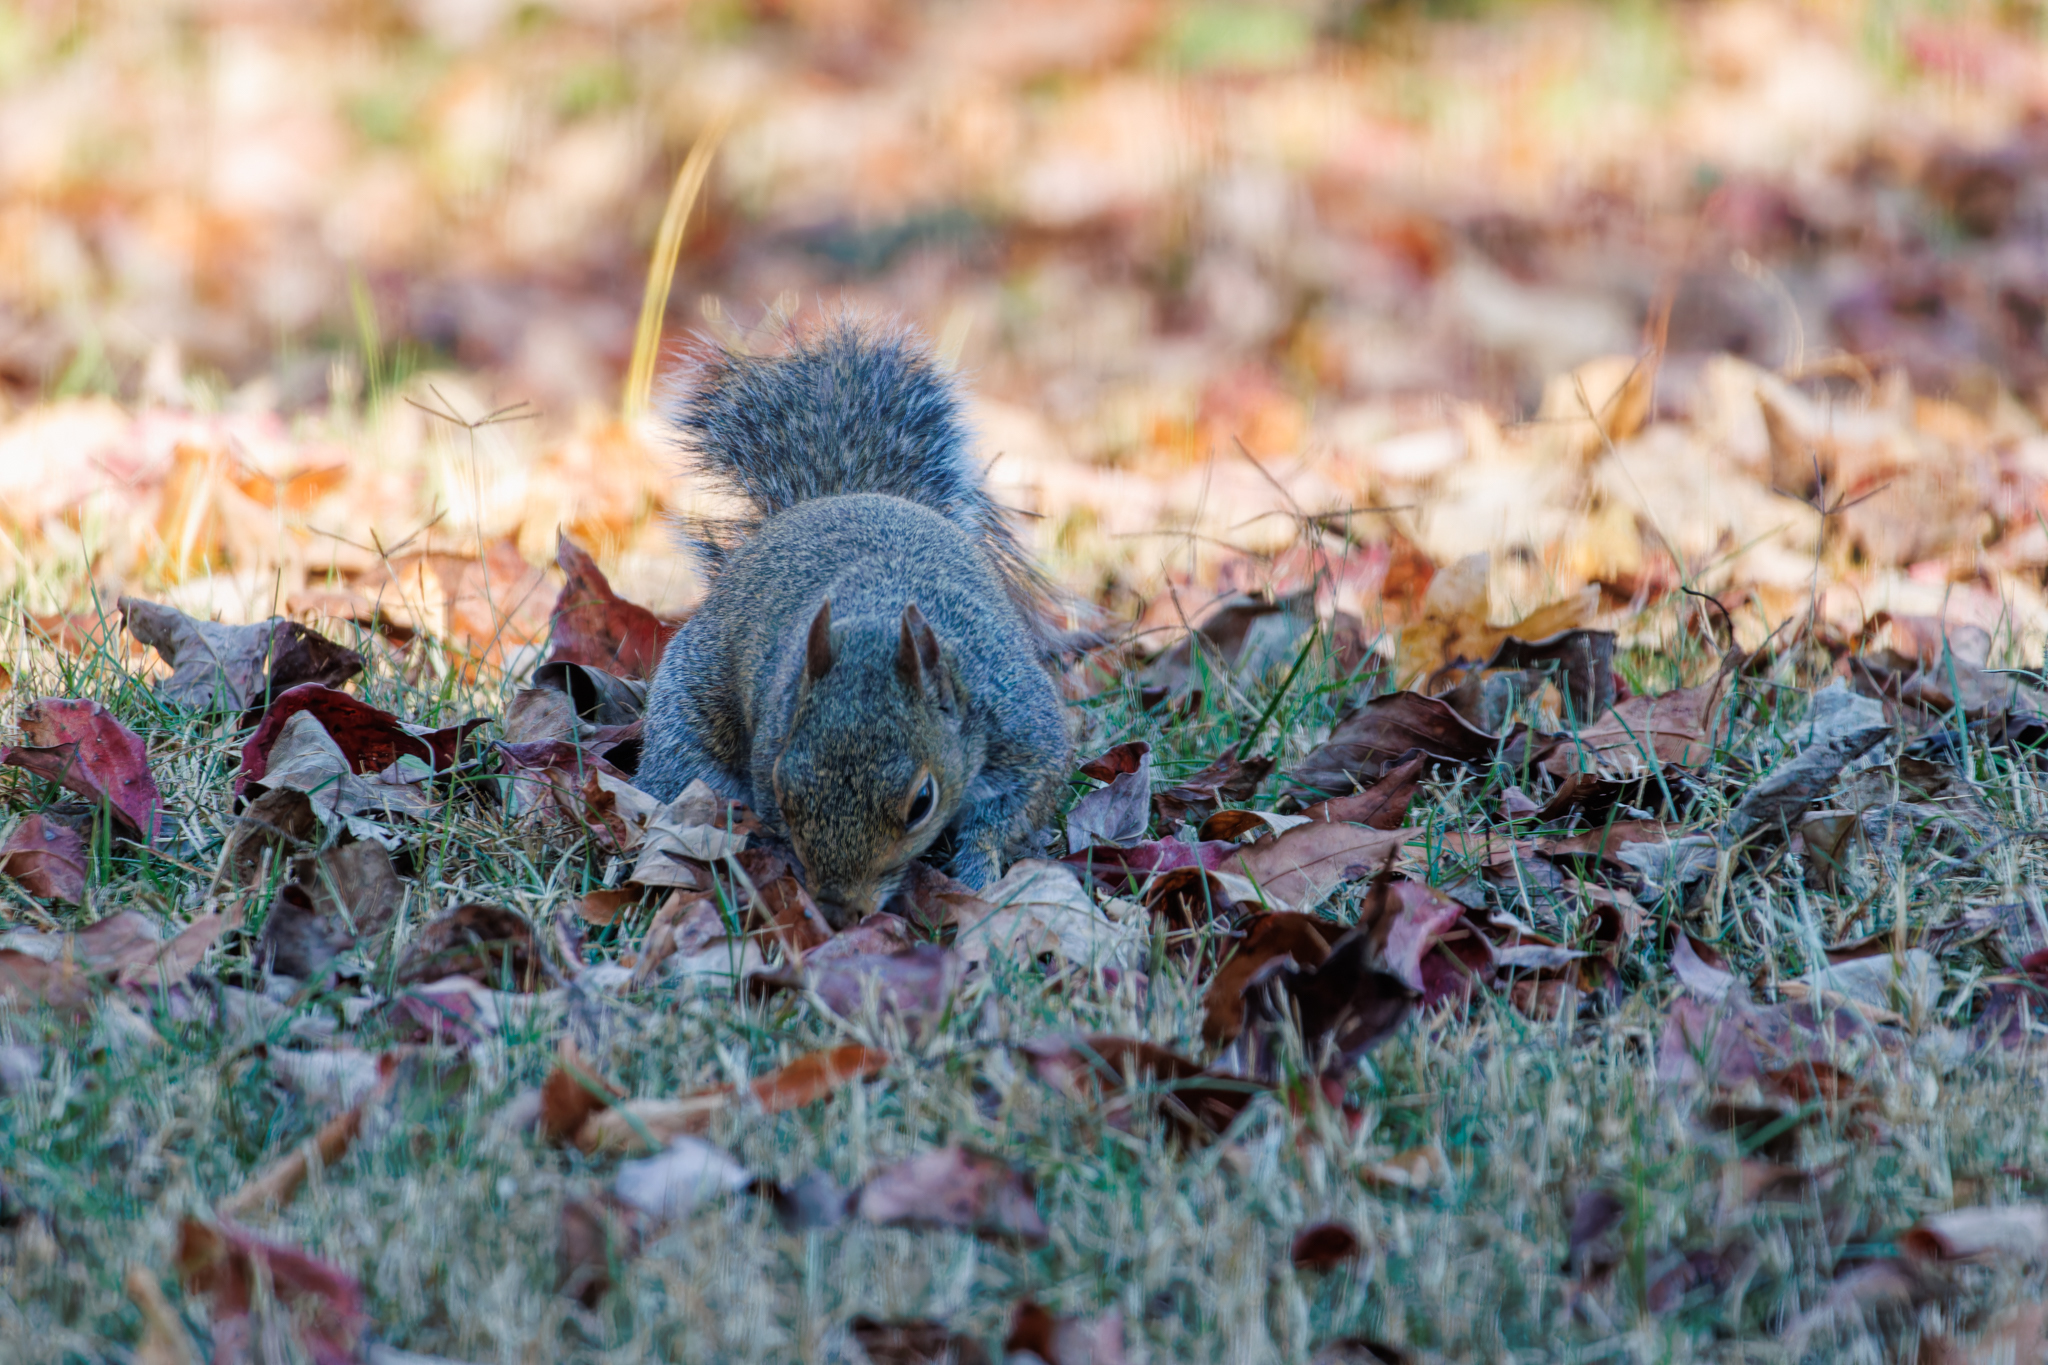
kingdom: Animalia
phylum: Chordata
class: Mammalia
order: Rodentia
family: Sciuridae
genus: Sciurus
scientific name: Sciurus carolinensis
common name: Eastern gray squirrel
